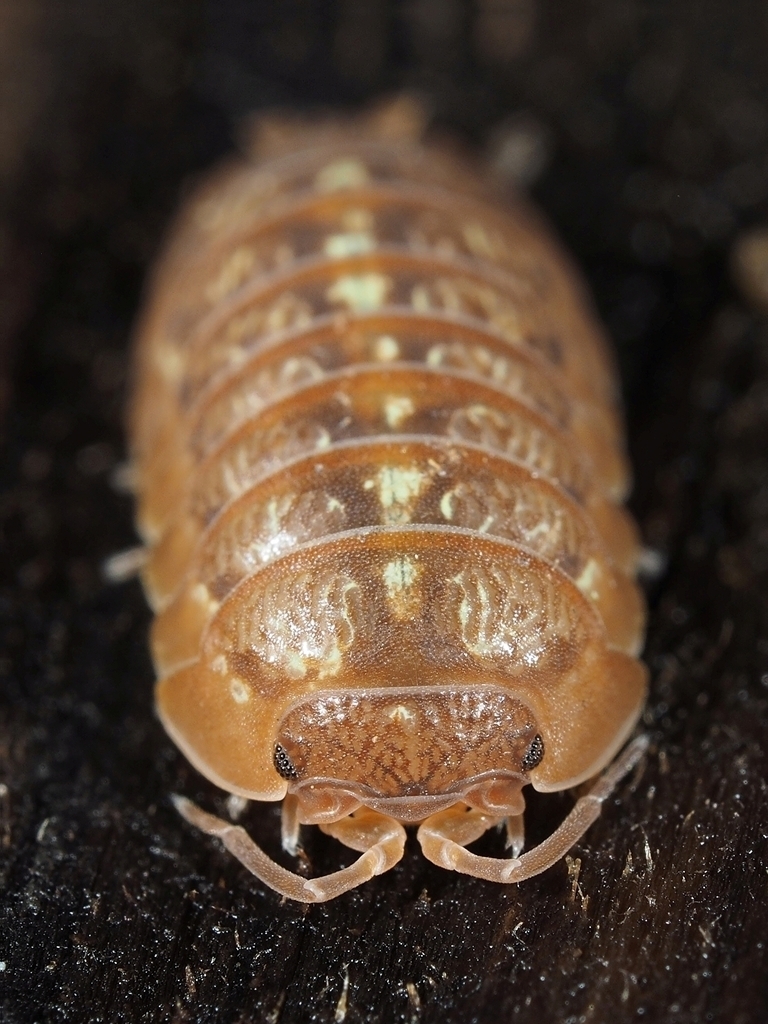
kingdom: Animalia
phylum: Arthropoda
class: Malacostraca
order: Isopoda
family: Armadillidiidae
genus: Armadillidium
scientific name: Armadillidium decorum
